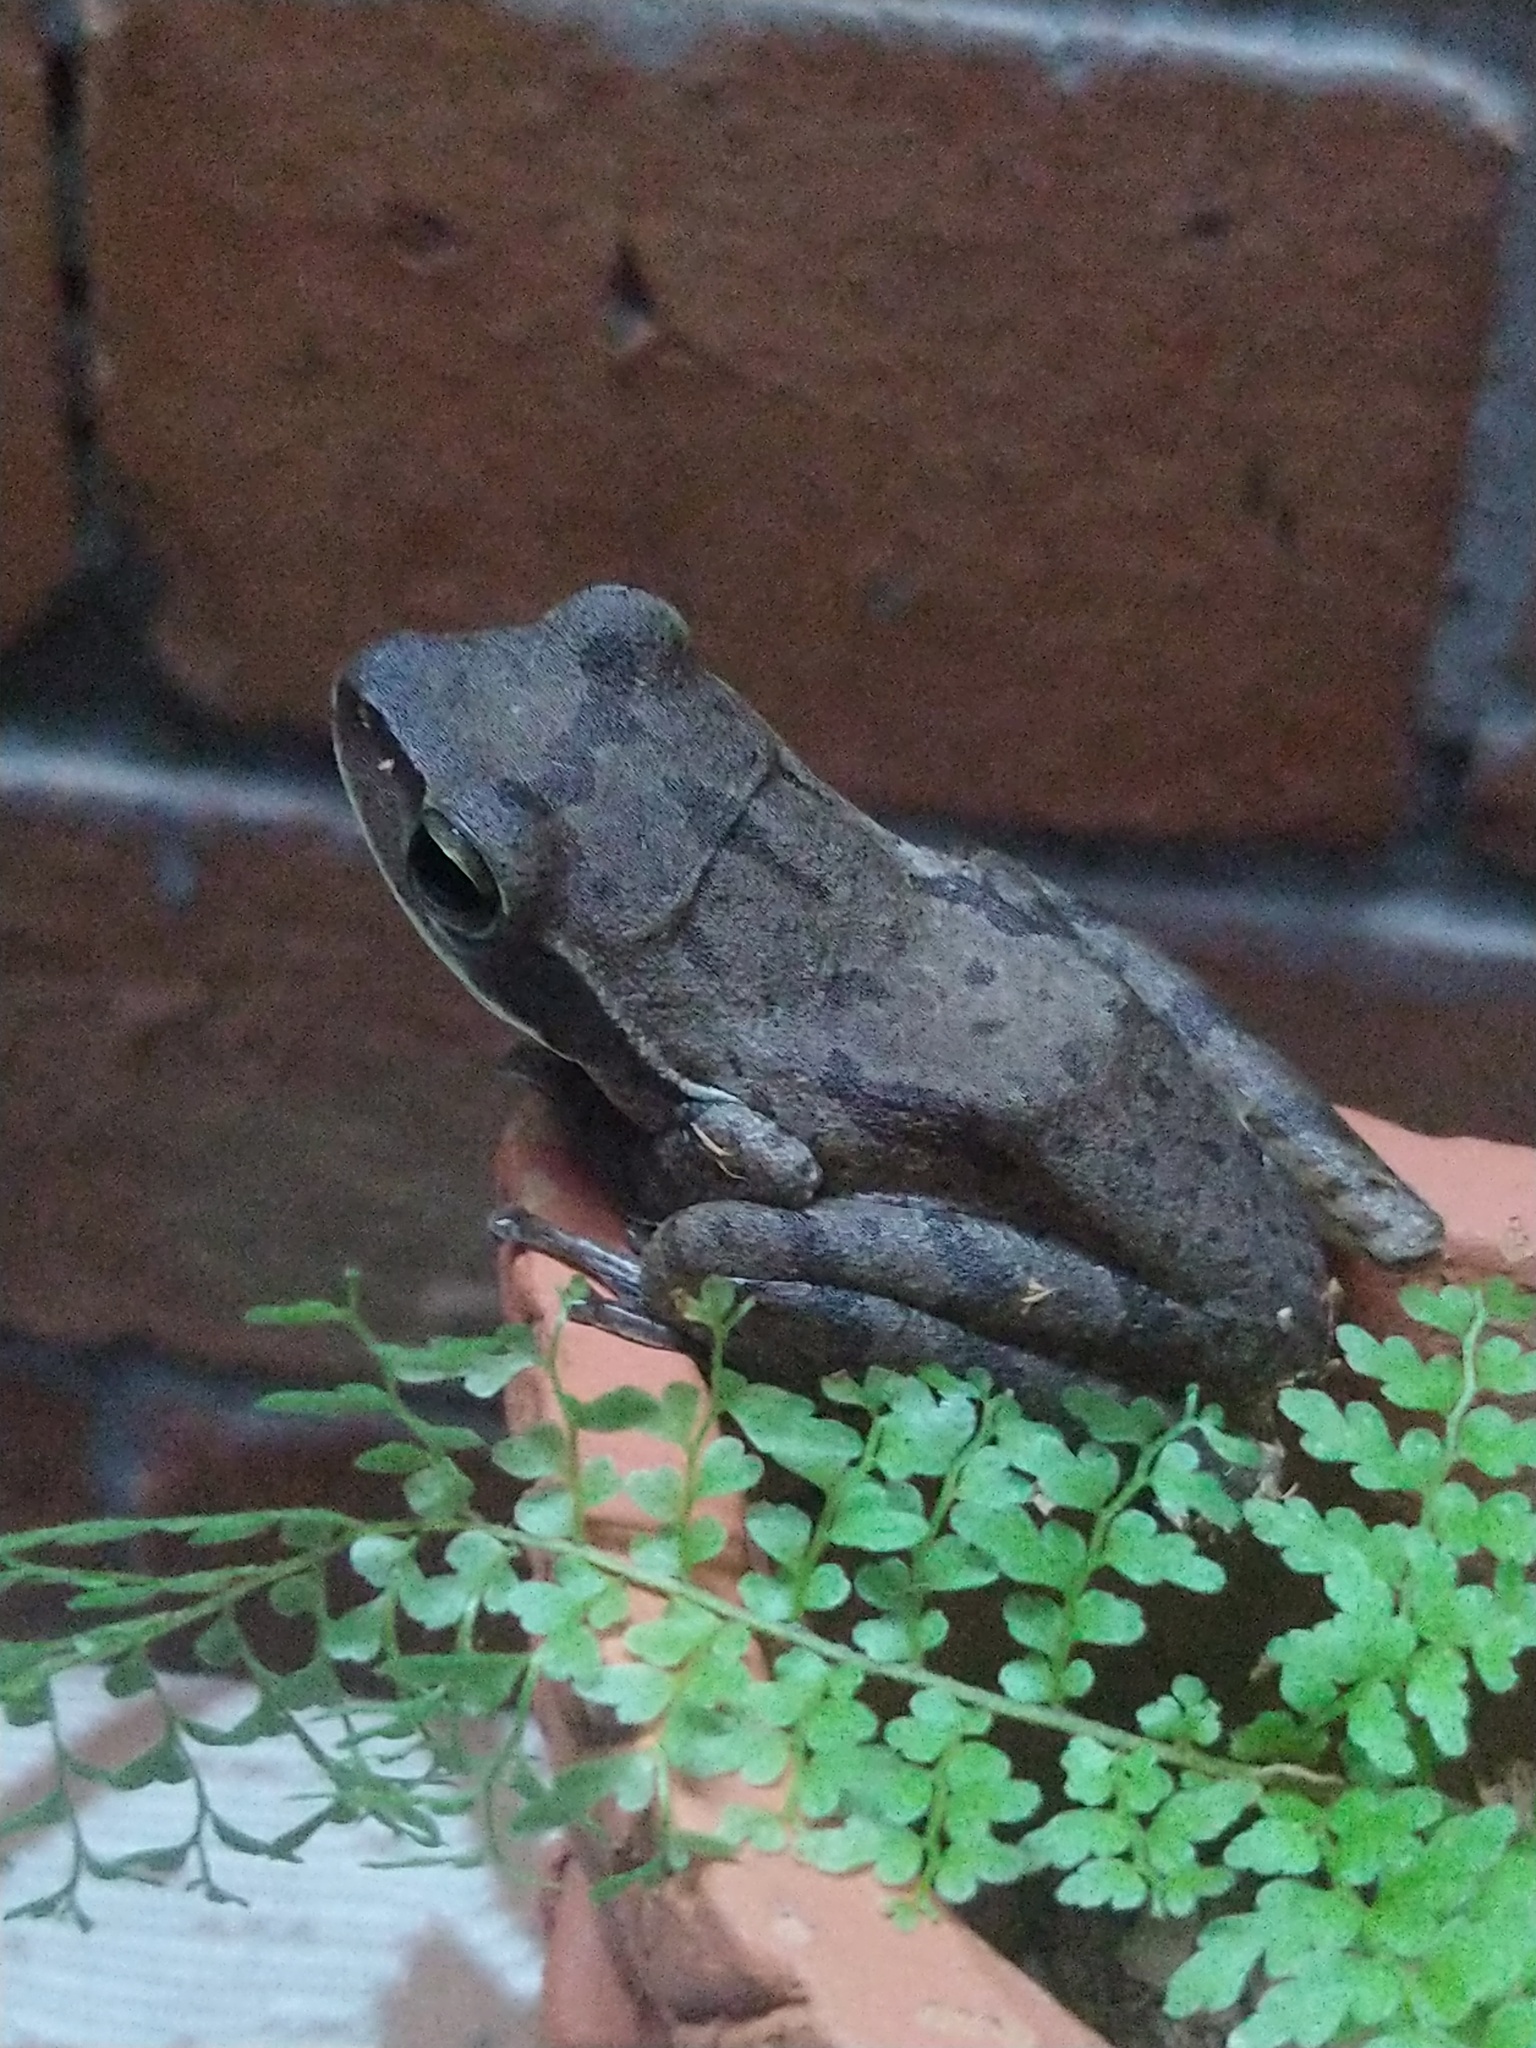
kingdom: Animalia
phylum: Chordata
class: Amphibia
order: Anura
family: Rhacophoridae
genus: Polypedates
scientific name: Polypedates maculatus
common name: Himalayan tree frog
